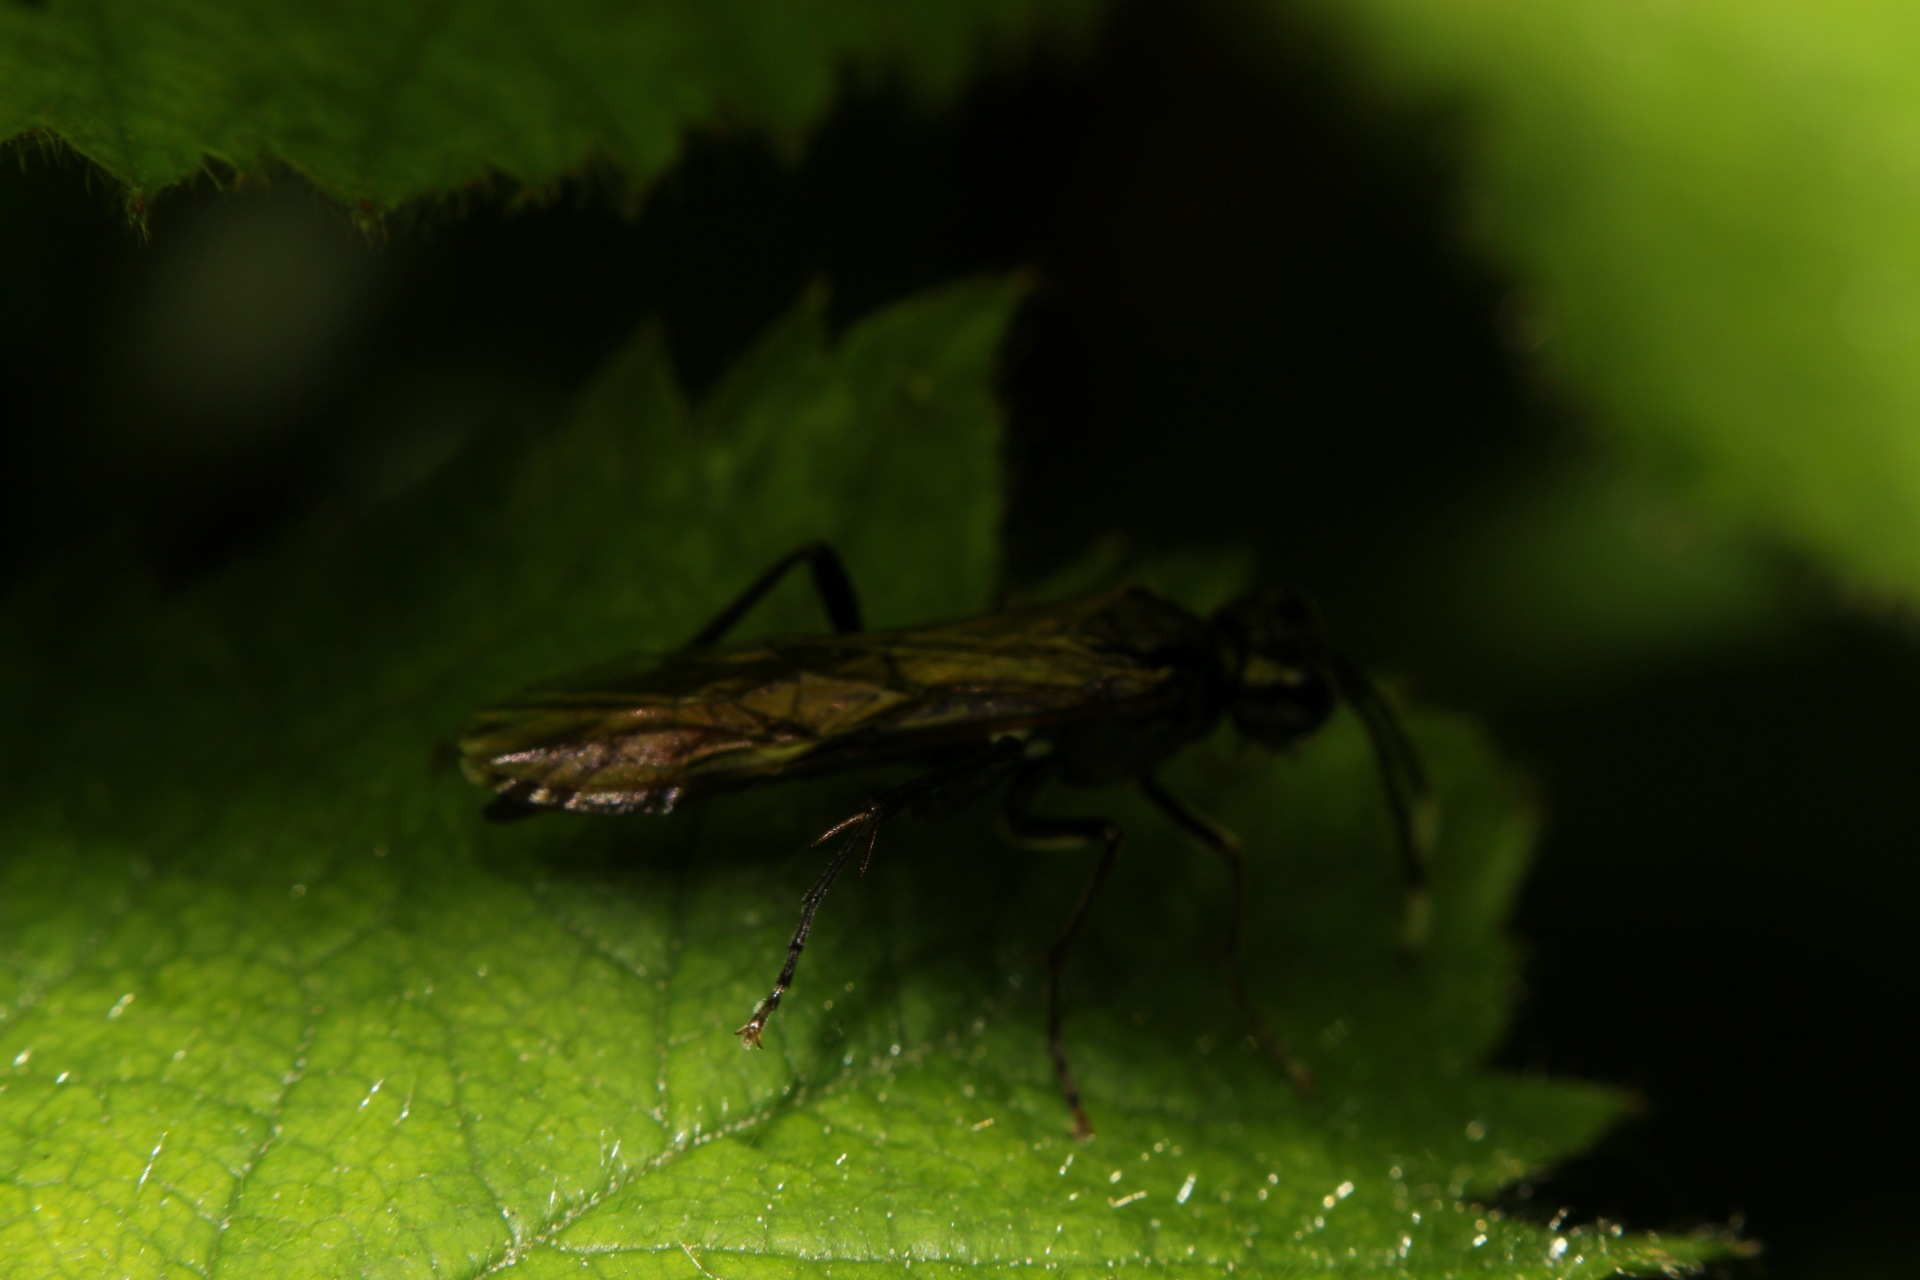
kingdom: Animalia
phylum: Arthropoda
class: Insecta
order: Hymenoptera
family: Tenthredinidae
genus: Tenthredo
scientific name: Tenthredo livida
